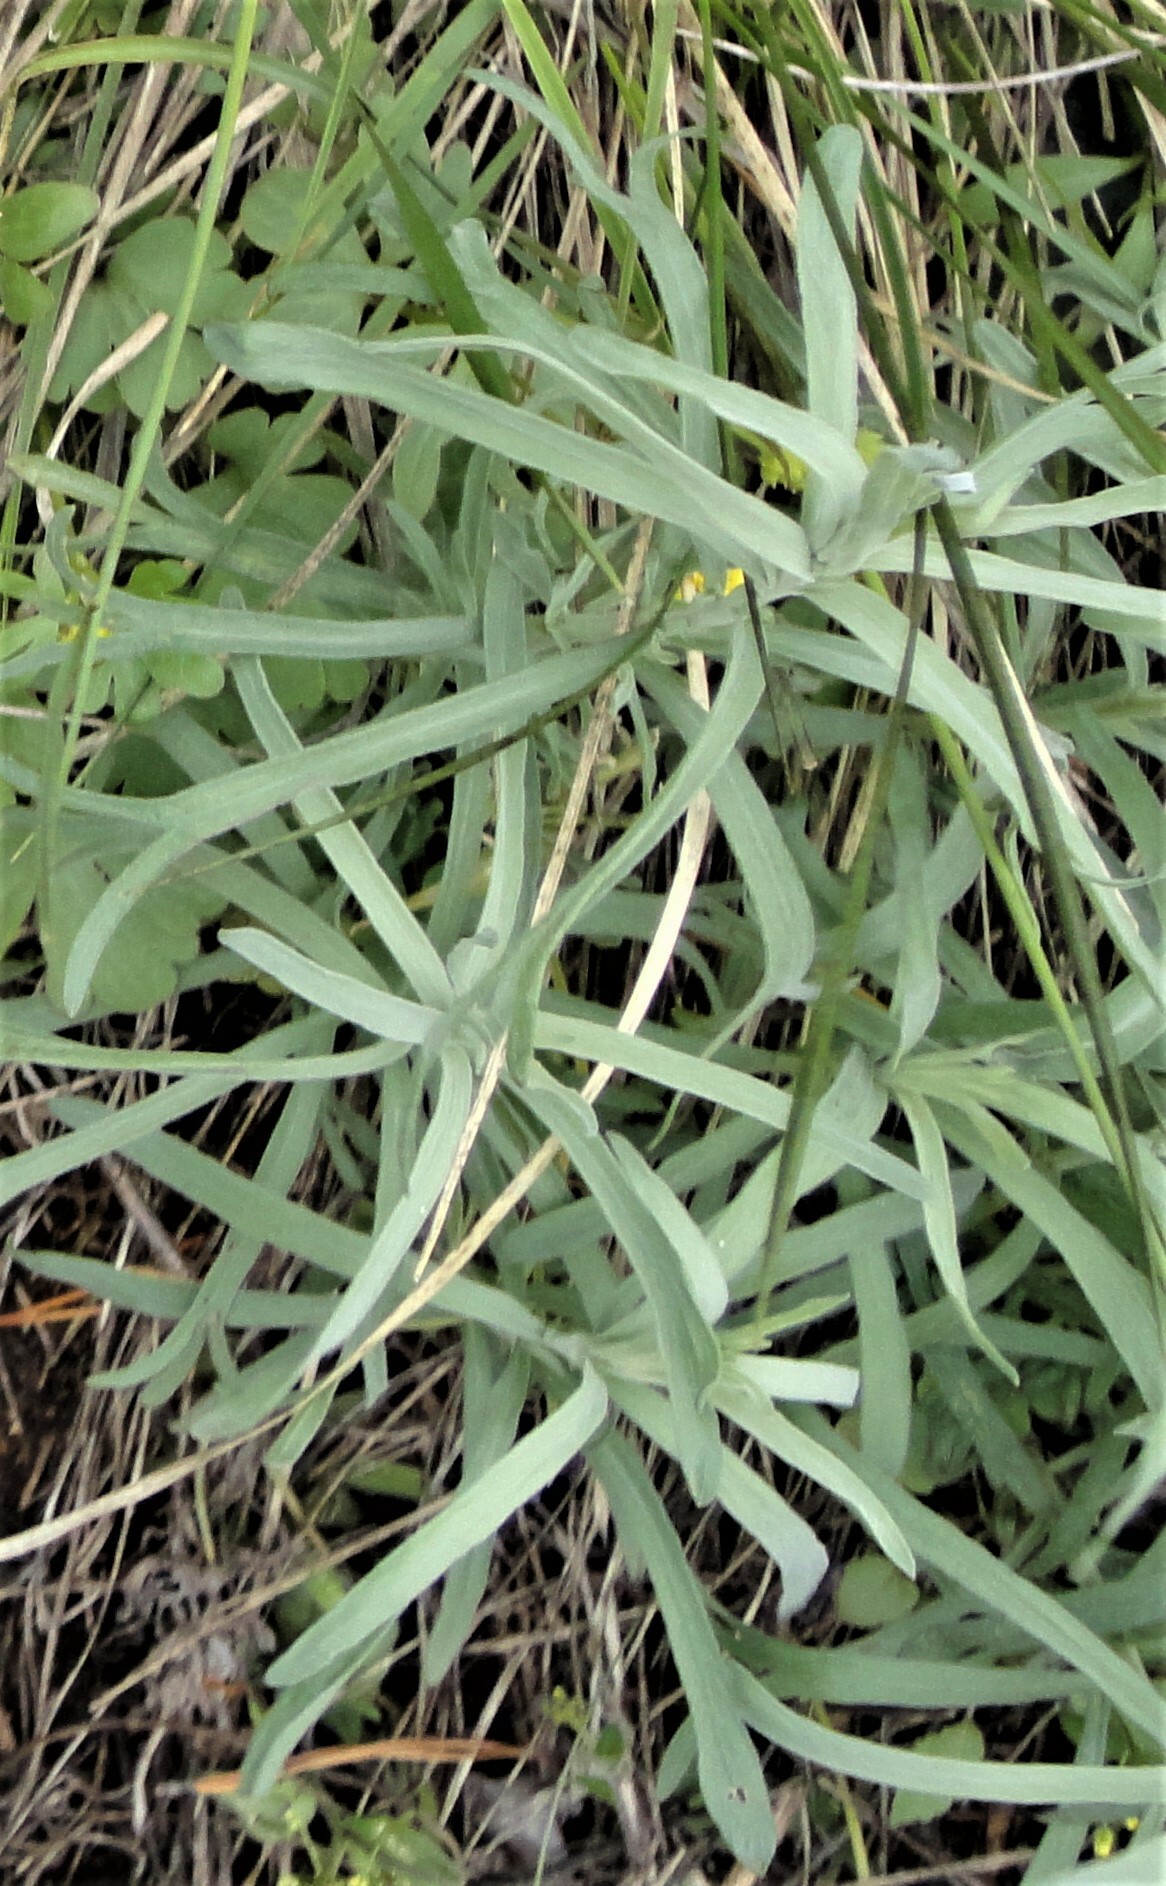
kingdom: Plantae
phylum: Tracheophyta
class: Magnoliopsida
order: Asterales
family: Asteraceae
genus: Artemisia
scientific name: Artemisia glauca
